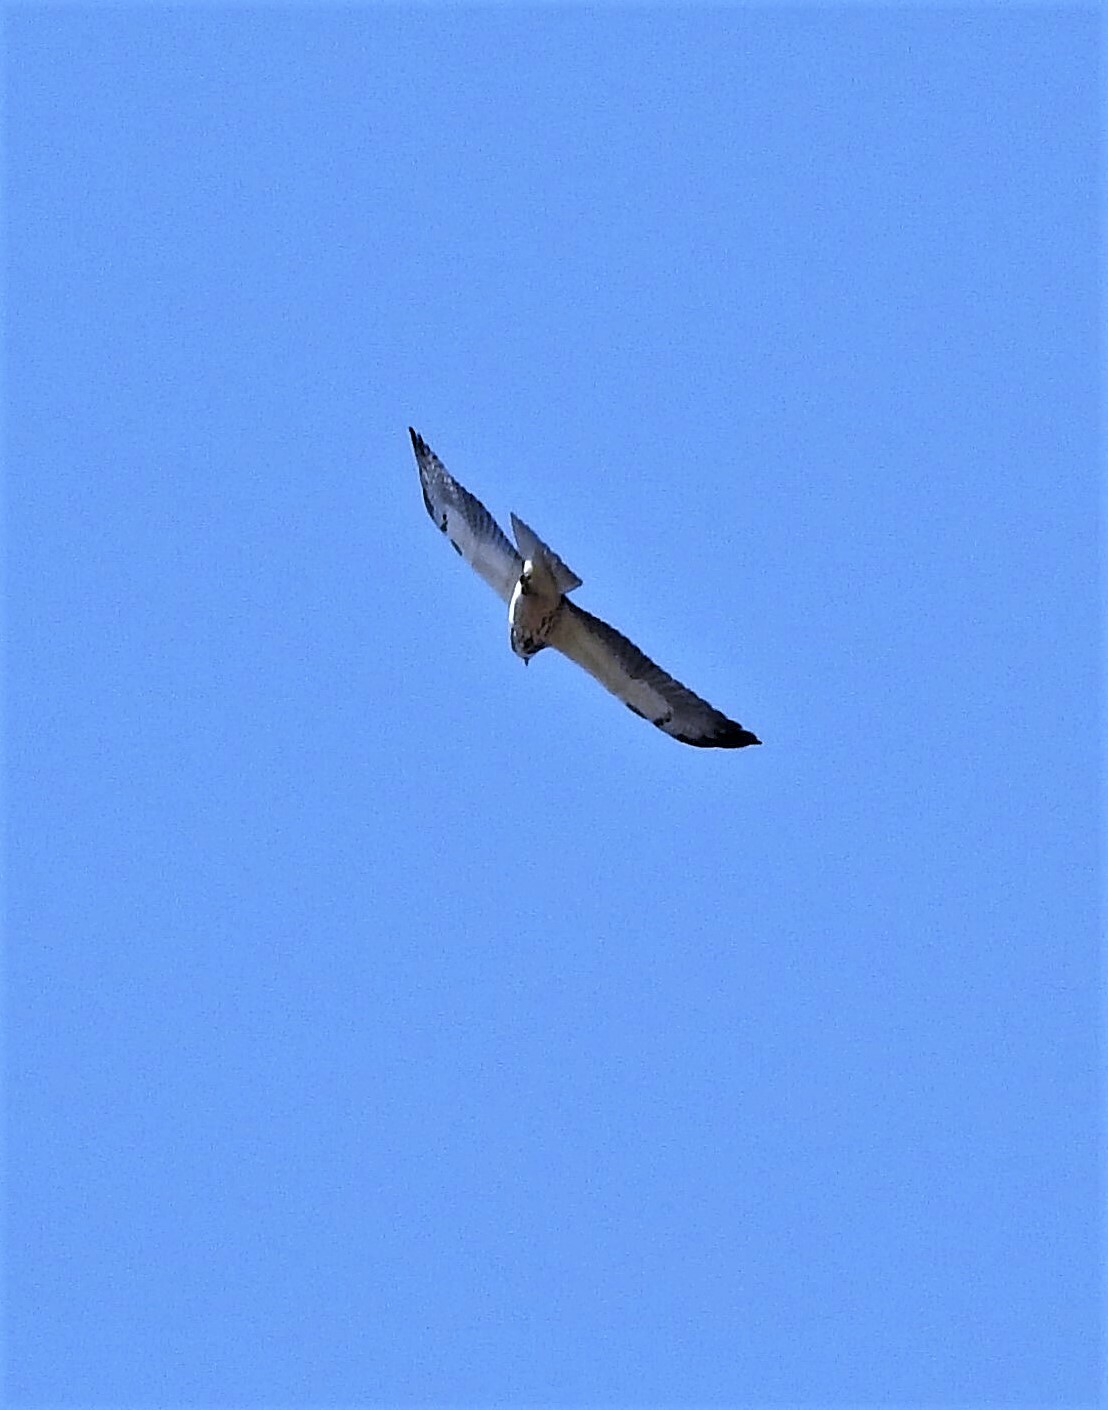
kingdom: Animalia
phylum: Chordata
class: Aves
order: Accipitriformes
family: Accipitridae
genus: Buteo
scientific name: Buteo swainsoni
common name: Swainson's hawk
